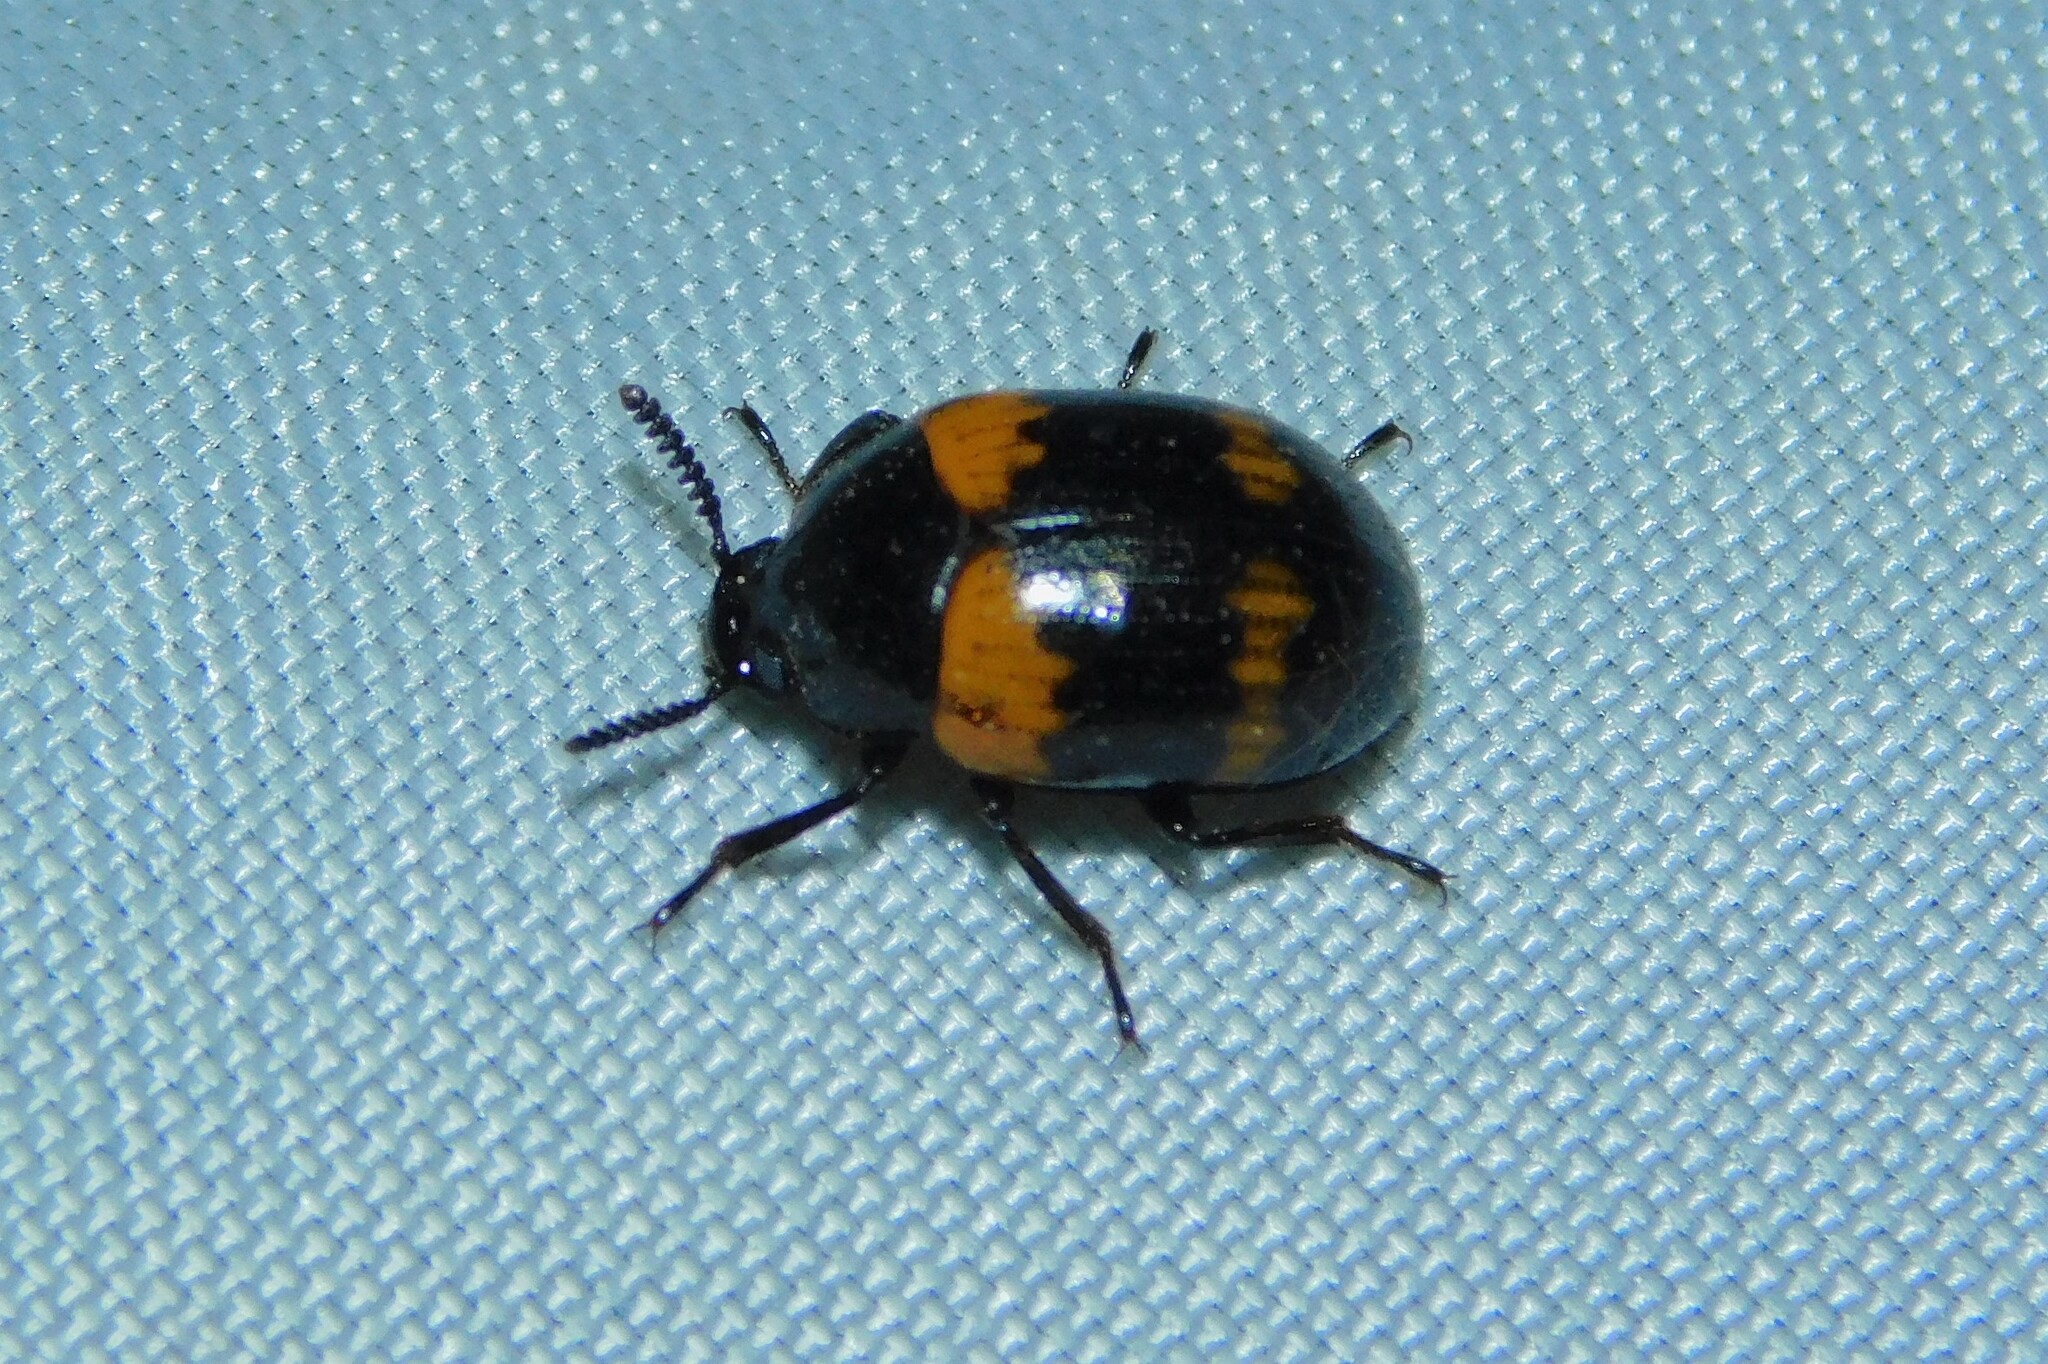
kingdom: Animalia
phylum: Arthropoda
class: Insecta
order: Coleoptera
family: Tenebrionidae
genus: Diaperis
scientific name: Diaperis boleti
